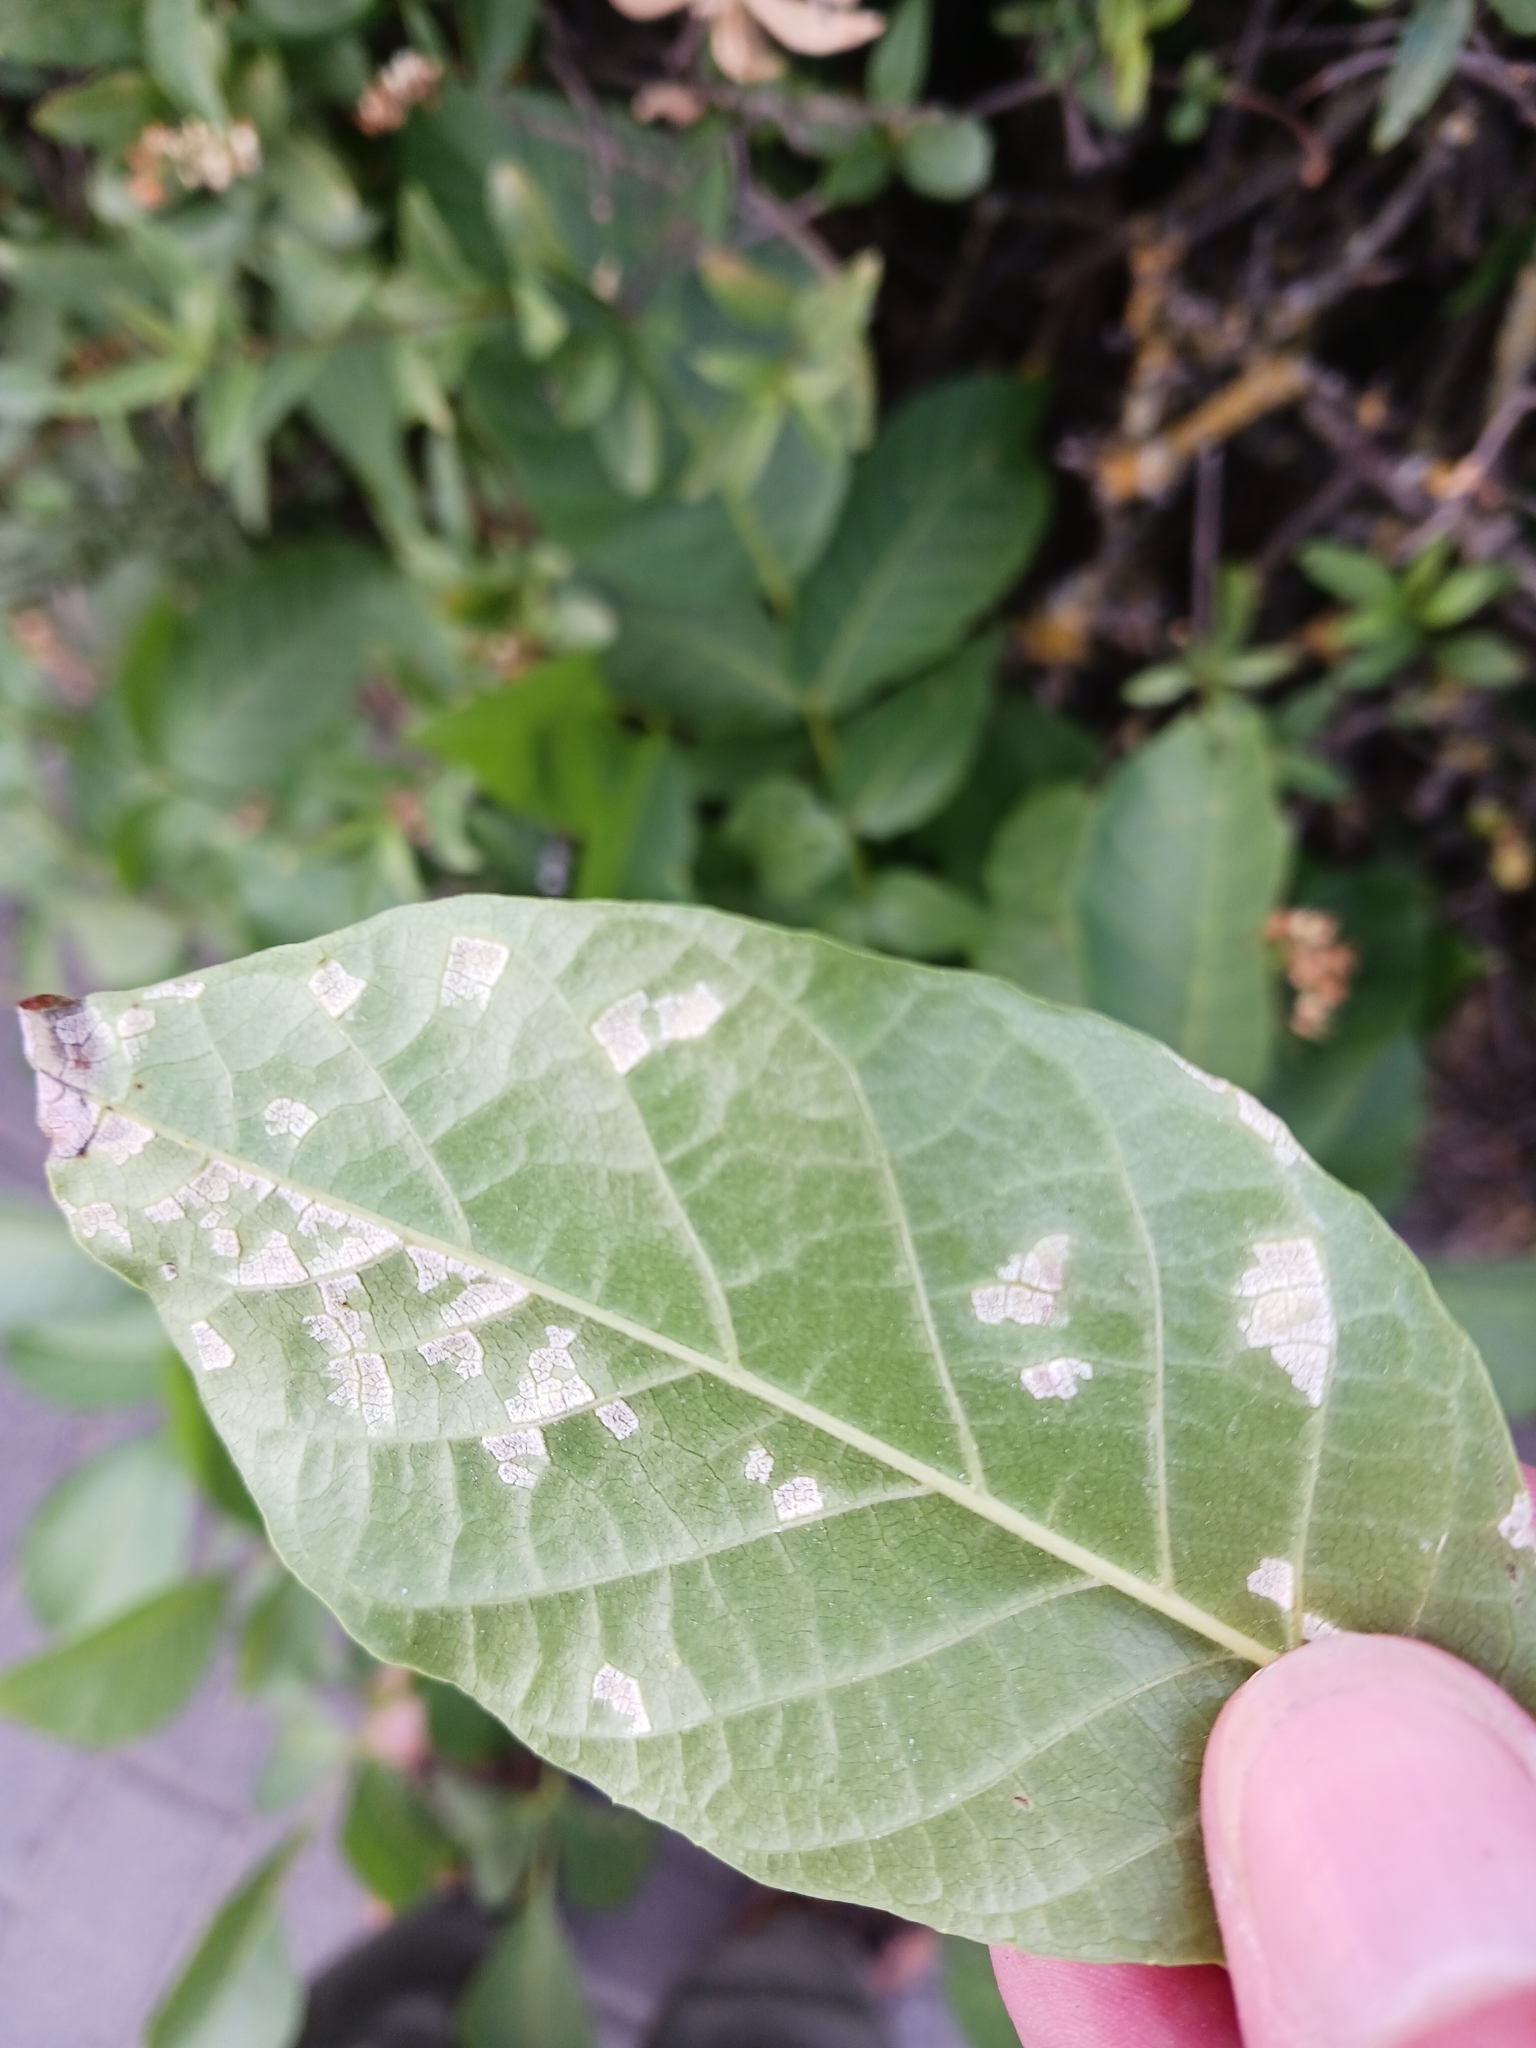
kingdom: Fungi
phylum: Basidiomycota
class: Exobasidiomycetes
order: Microstromatales
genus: Pseudomicrostroma
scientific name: Pseudomicrostroma juglandis
